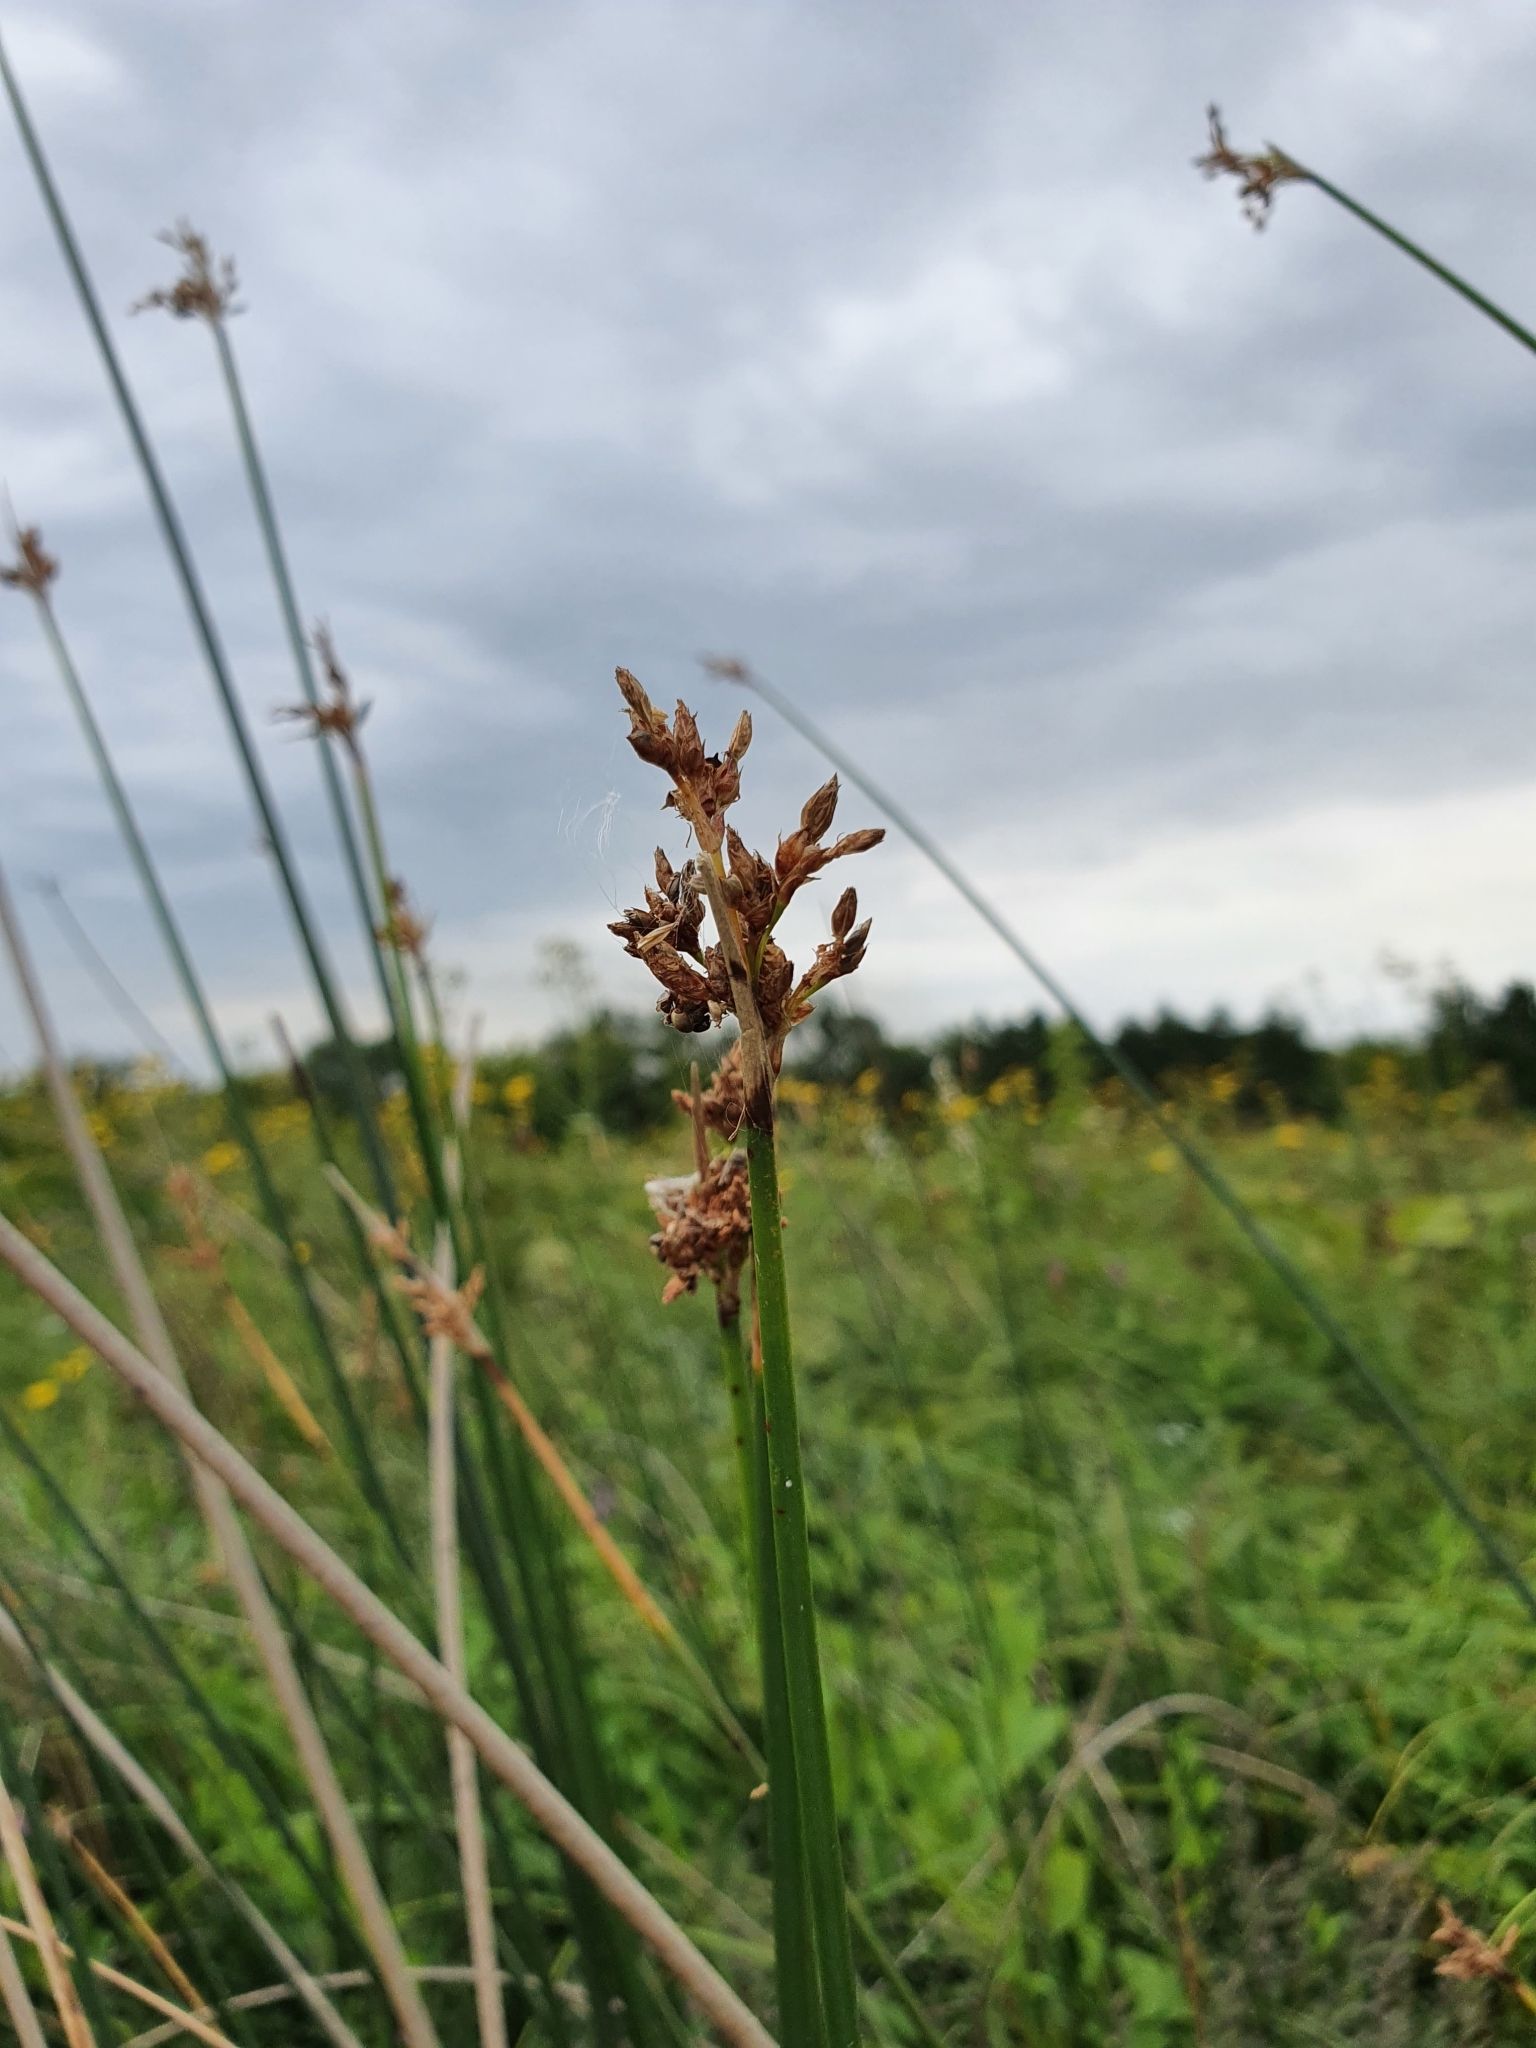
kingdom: Plantae
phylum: Tracheophyta
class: Liliopsida
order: Poales
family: Cyperaceae
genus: Schoenoplectus
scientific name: Schoenoplectus lacustris
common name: Common club-rush
